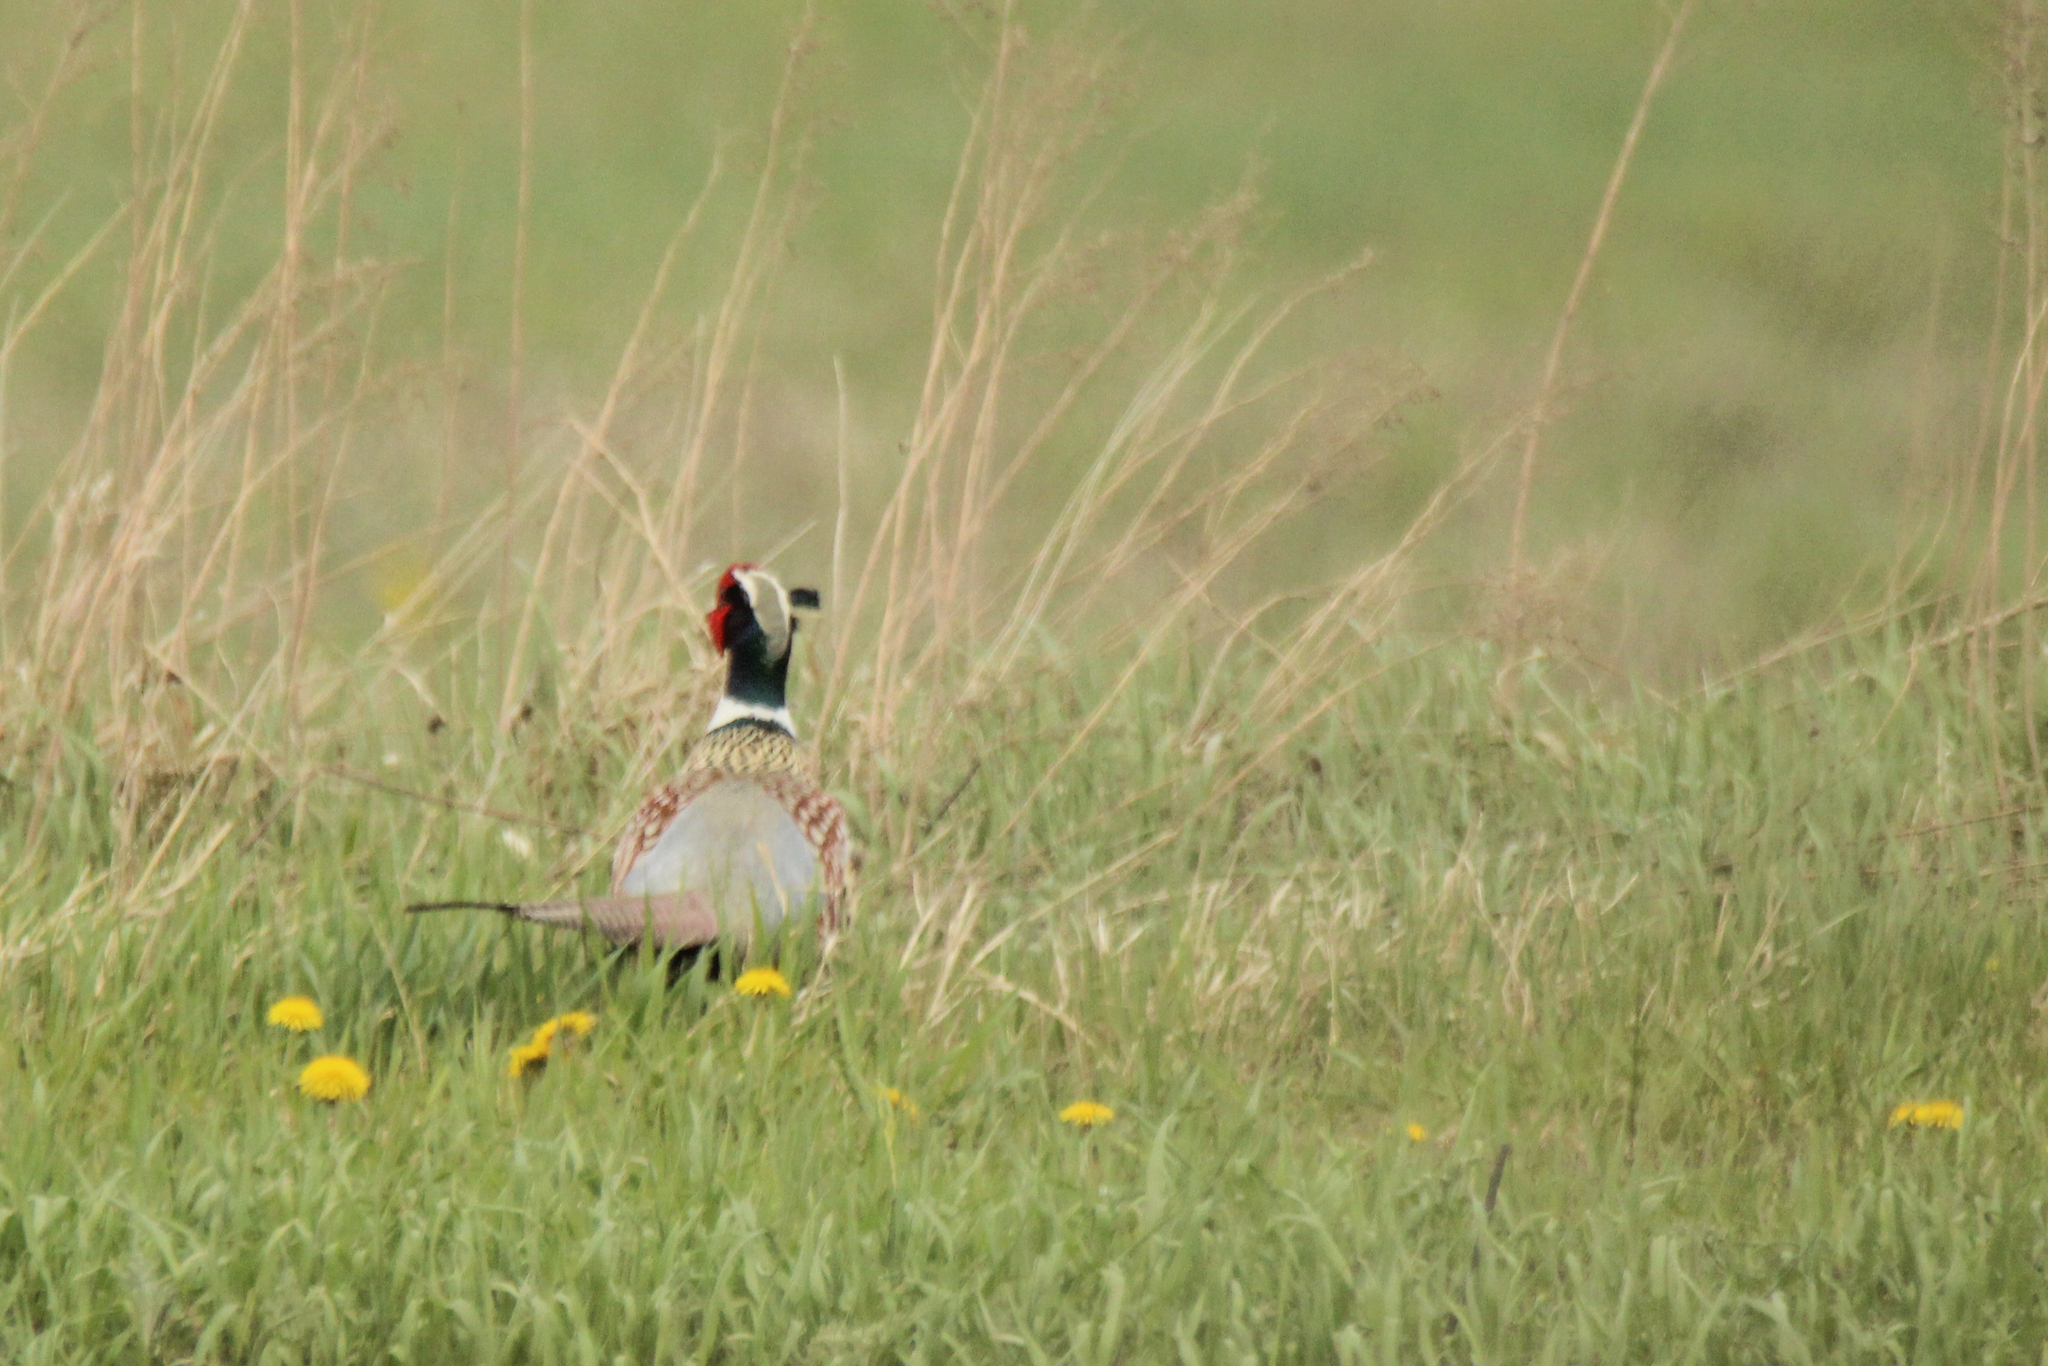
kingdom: Animalia
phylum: Chordata
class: Aves
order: Galliformes
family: Phasianidae
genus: Phasianus
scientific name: Phasianus colchicus
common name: Common pheasant
